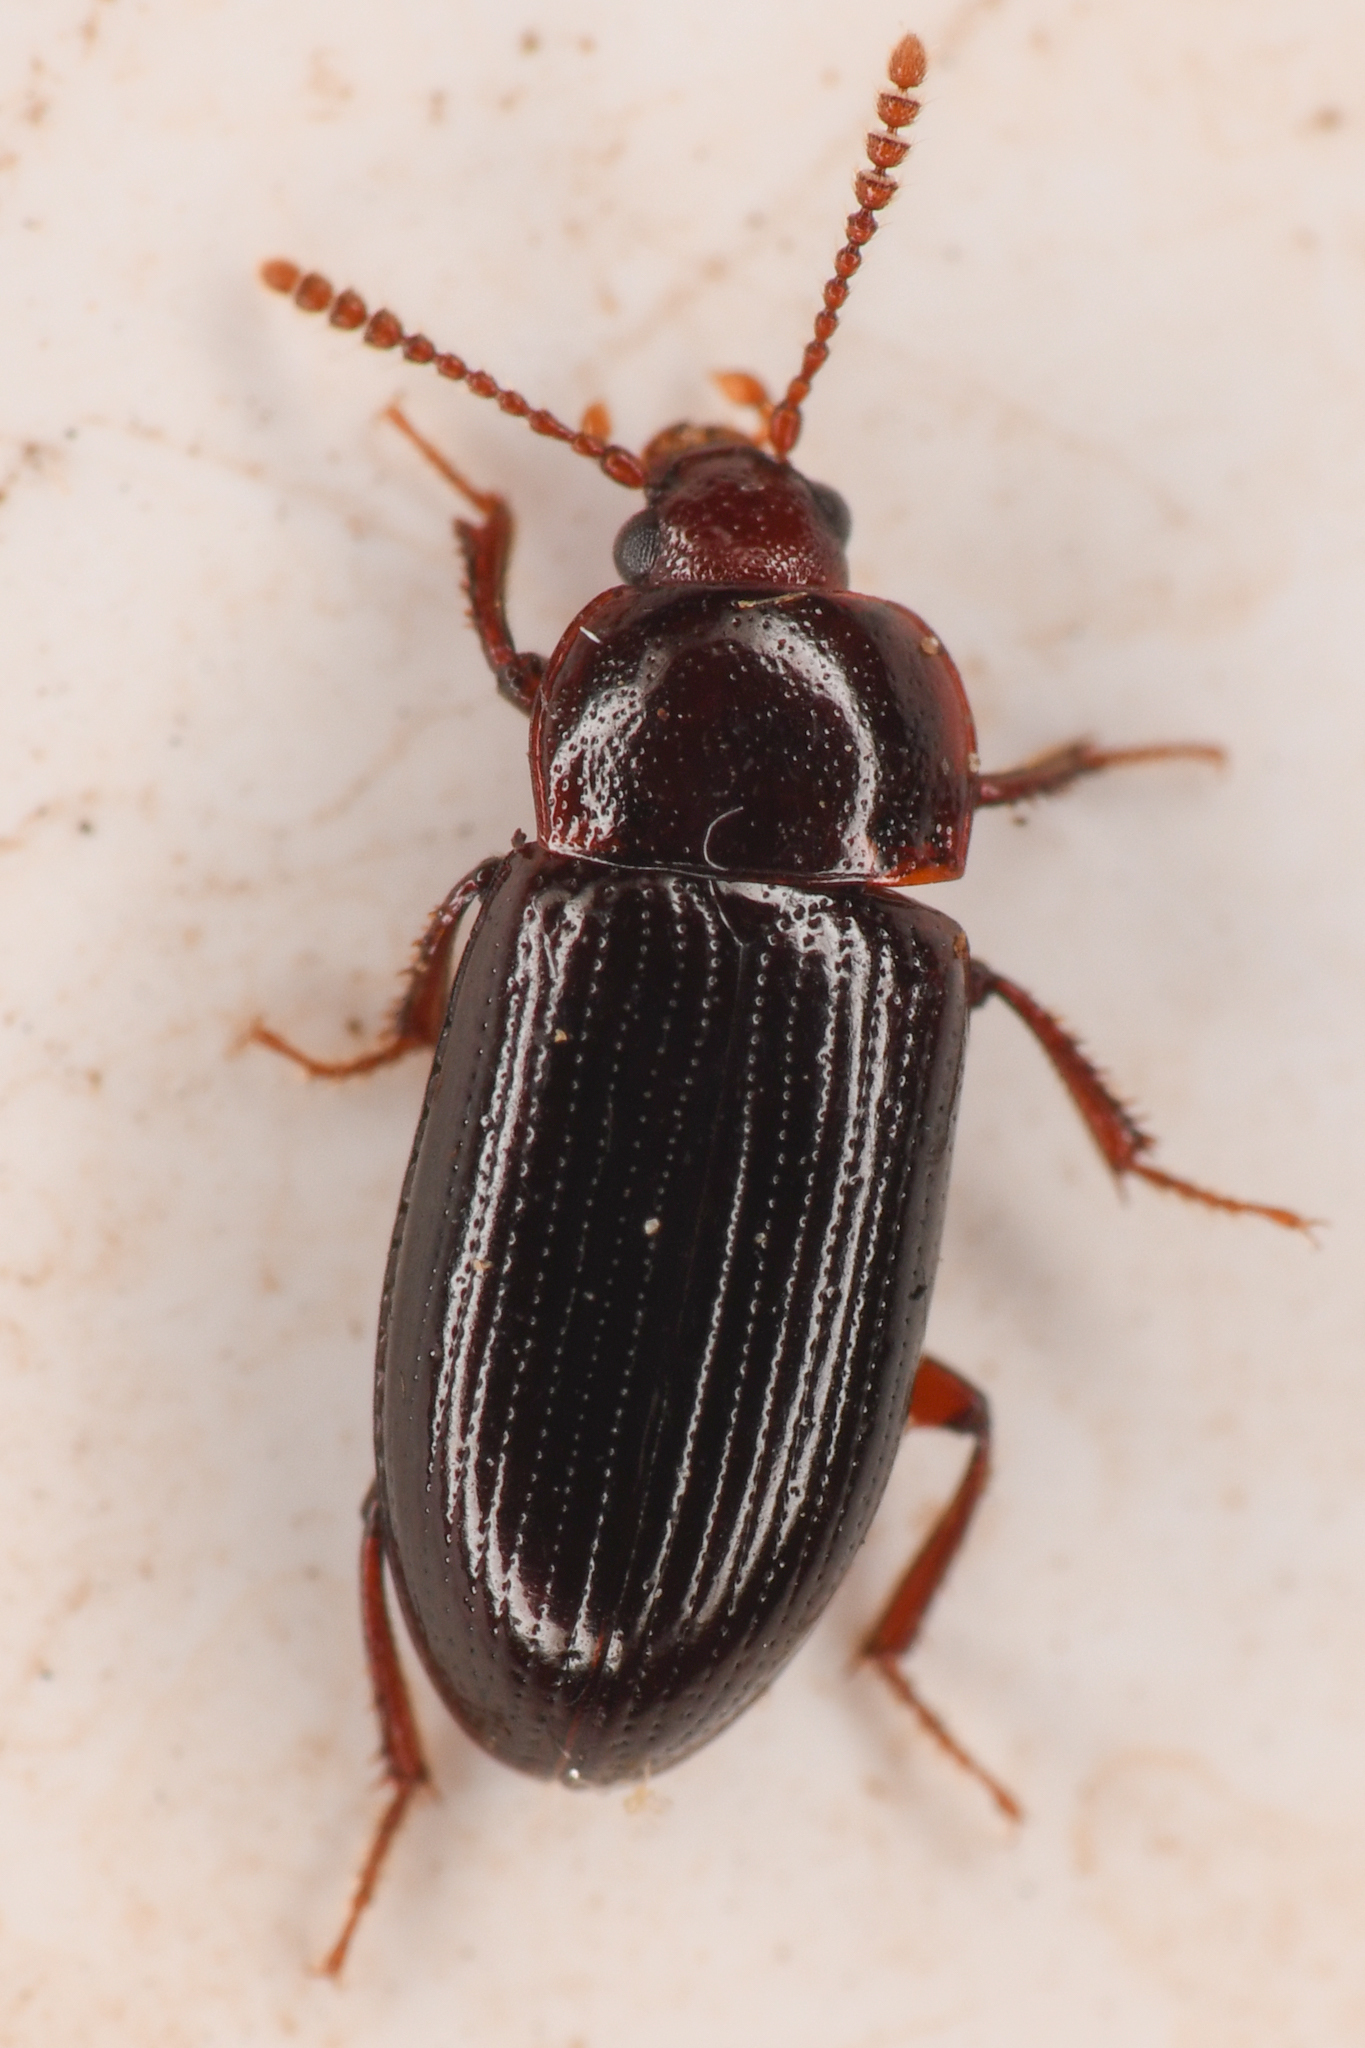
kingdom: Animalia
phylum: Arthropoda
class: Insecta
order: Coleoptera
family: Agyrtidae
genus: Agyrtes
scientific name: Agyrtes longulus
